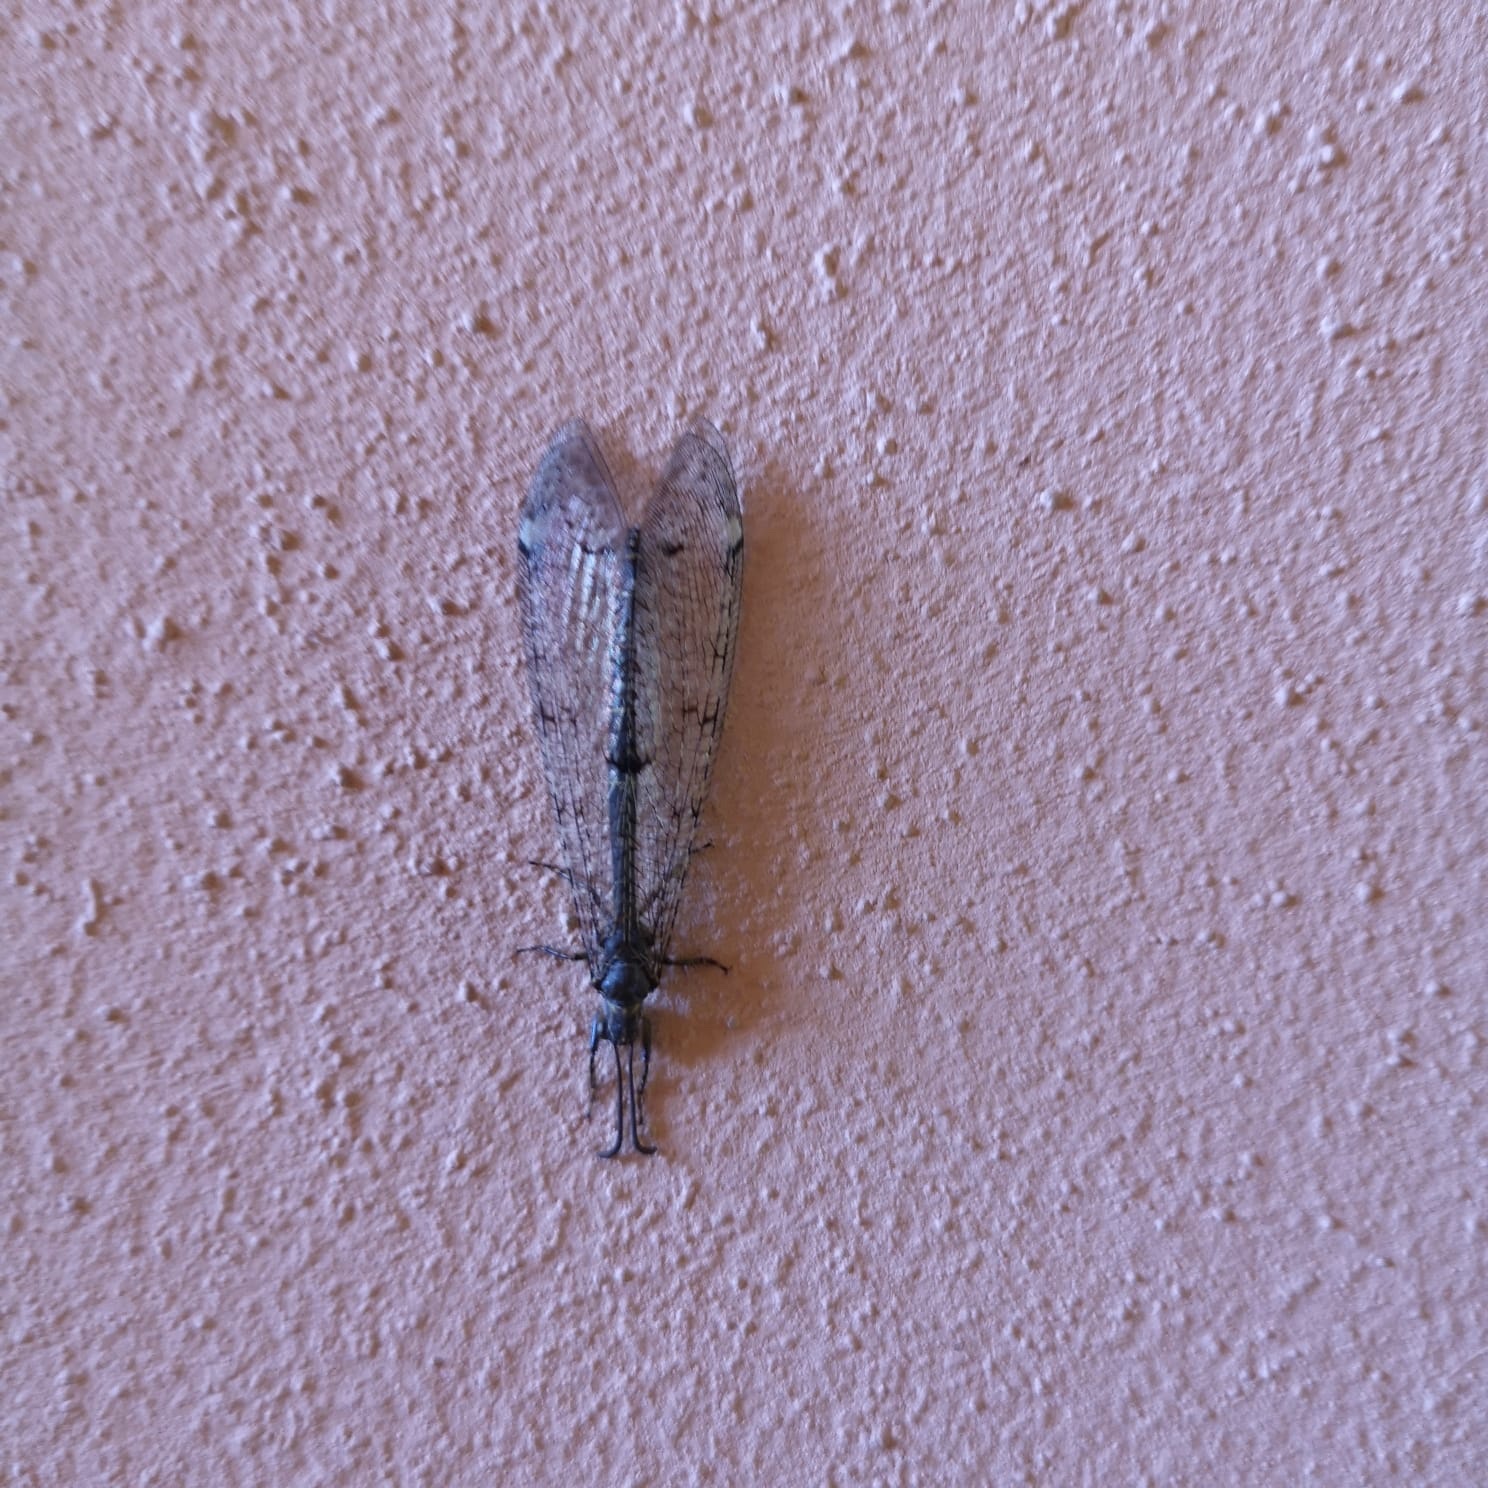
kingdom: Animalia
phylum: Arthropoda
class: Insecta
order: Neuroptera
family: Myrmeleontidae
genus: Distoleon
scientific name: Distoleon tetragrammicus
